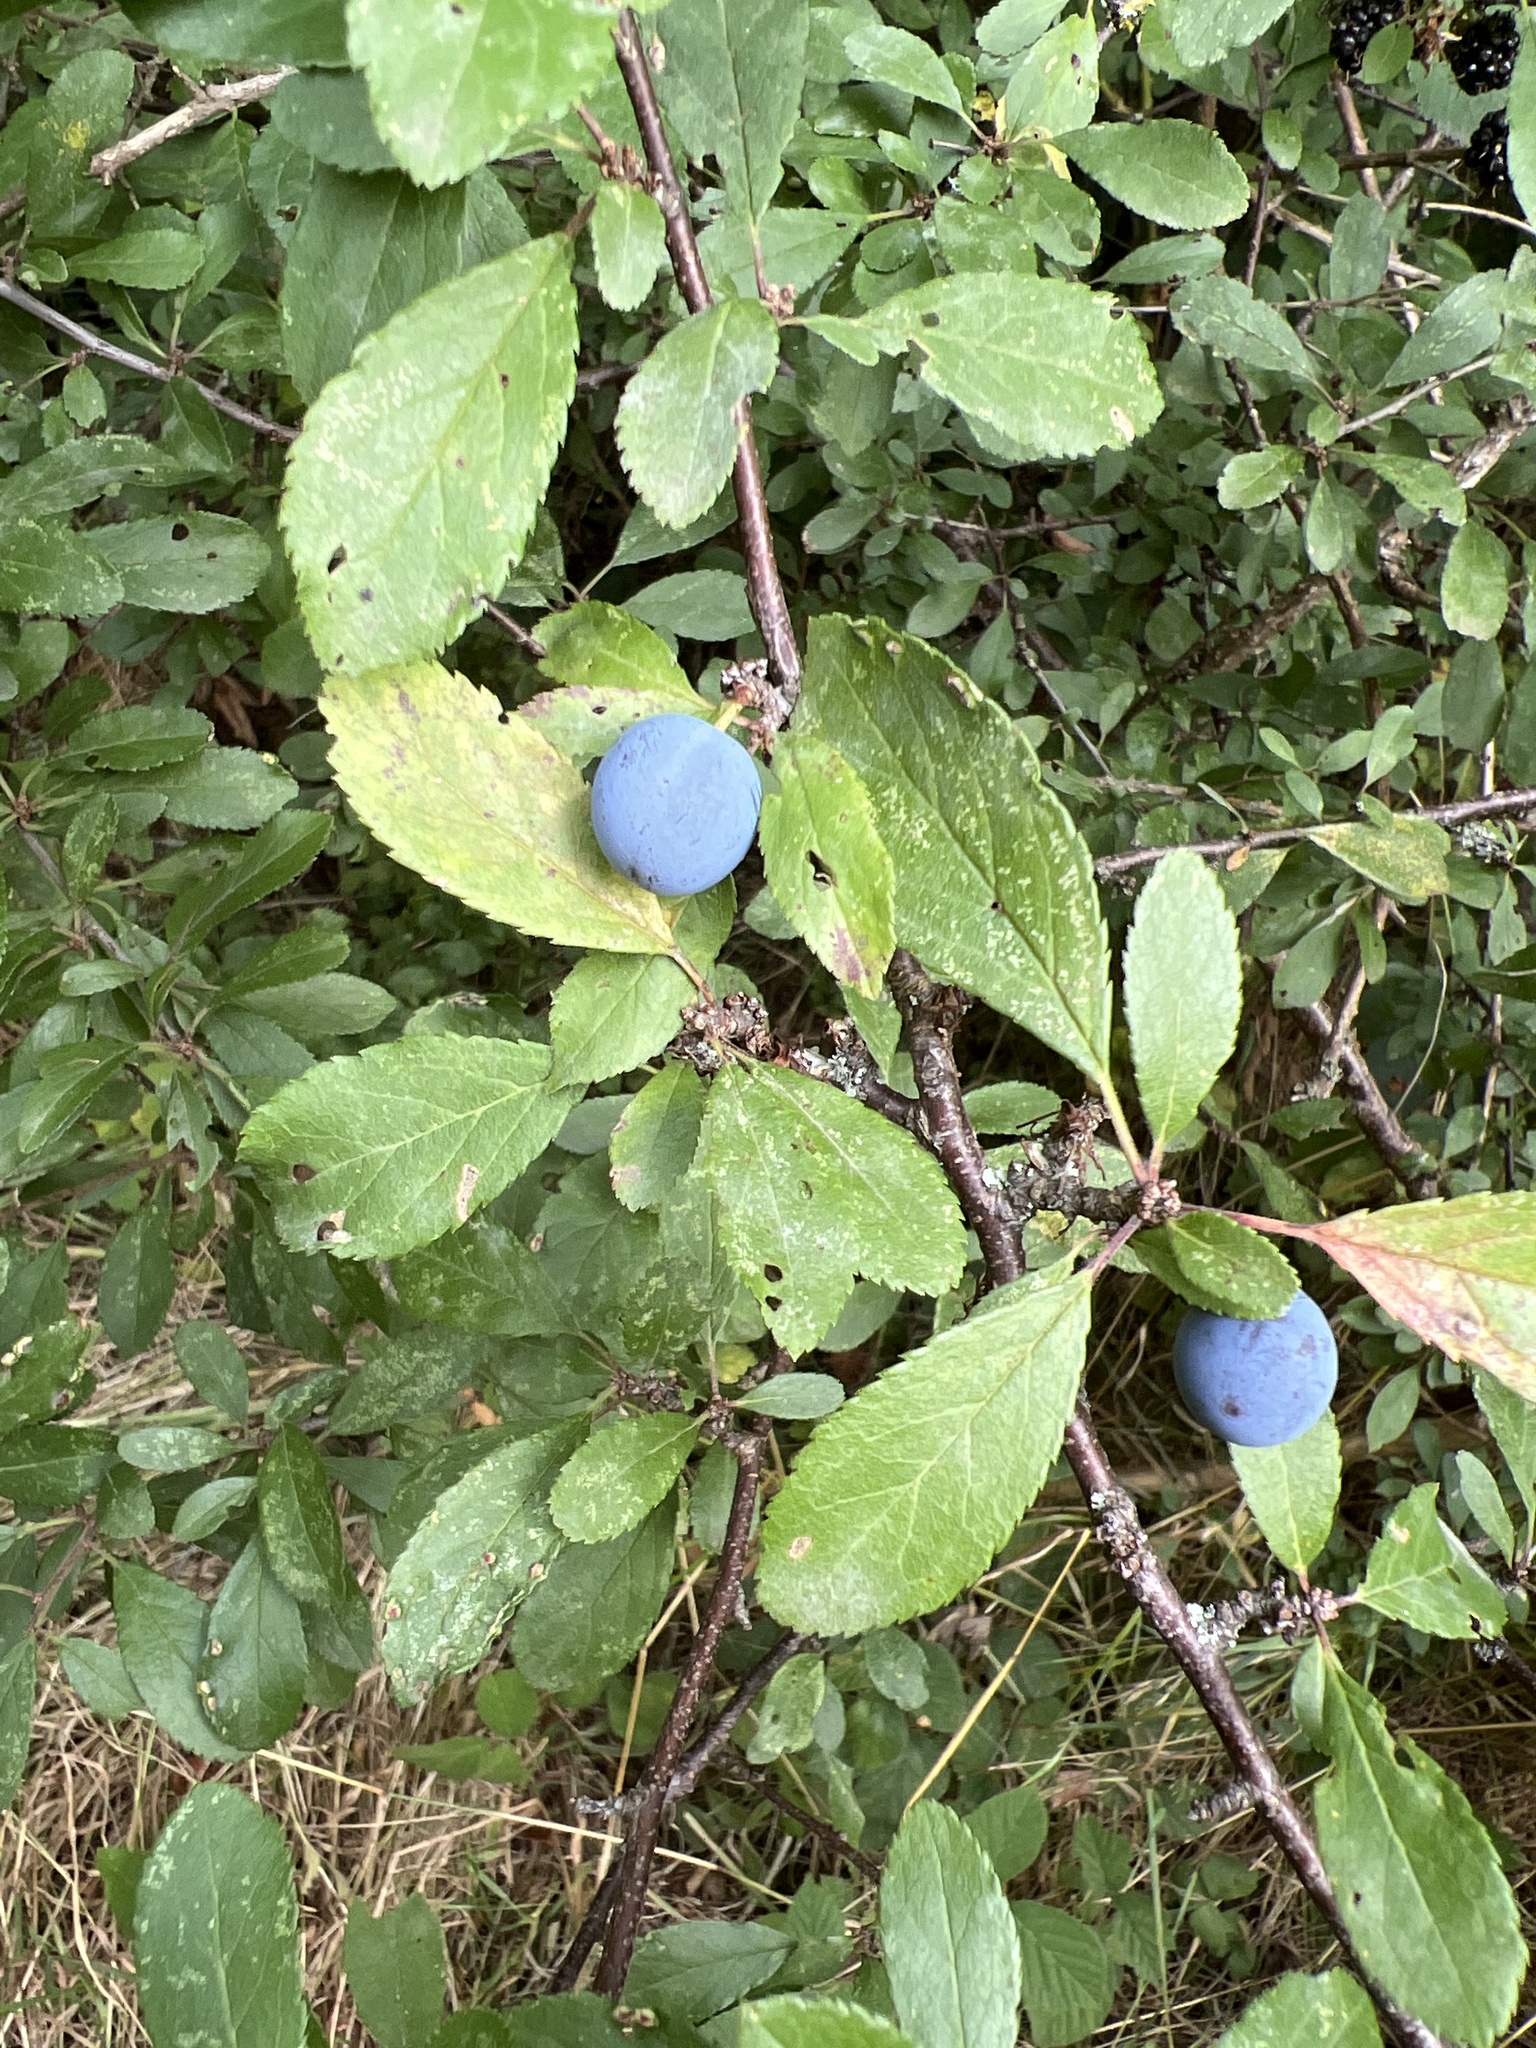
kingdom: Plantae
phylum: Tracheophyta
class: Magnoliopsida
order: Rosales
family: Rosaceae
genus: Prunus
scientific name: Prunus spinosa
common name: Blackthorn
